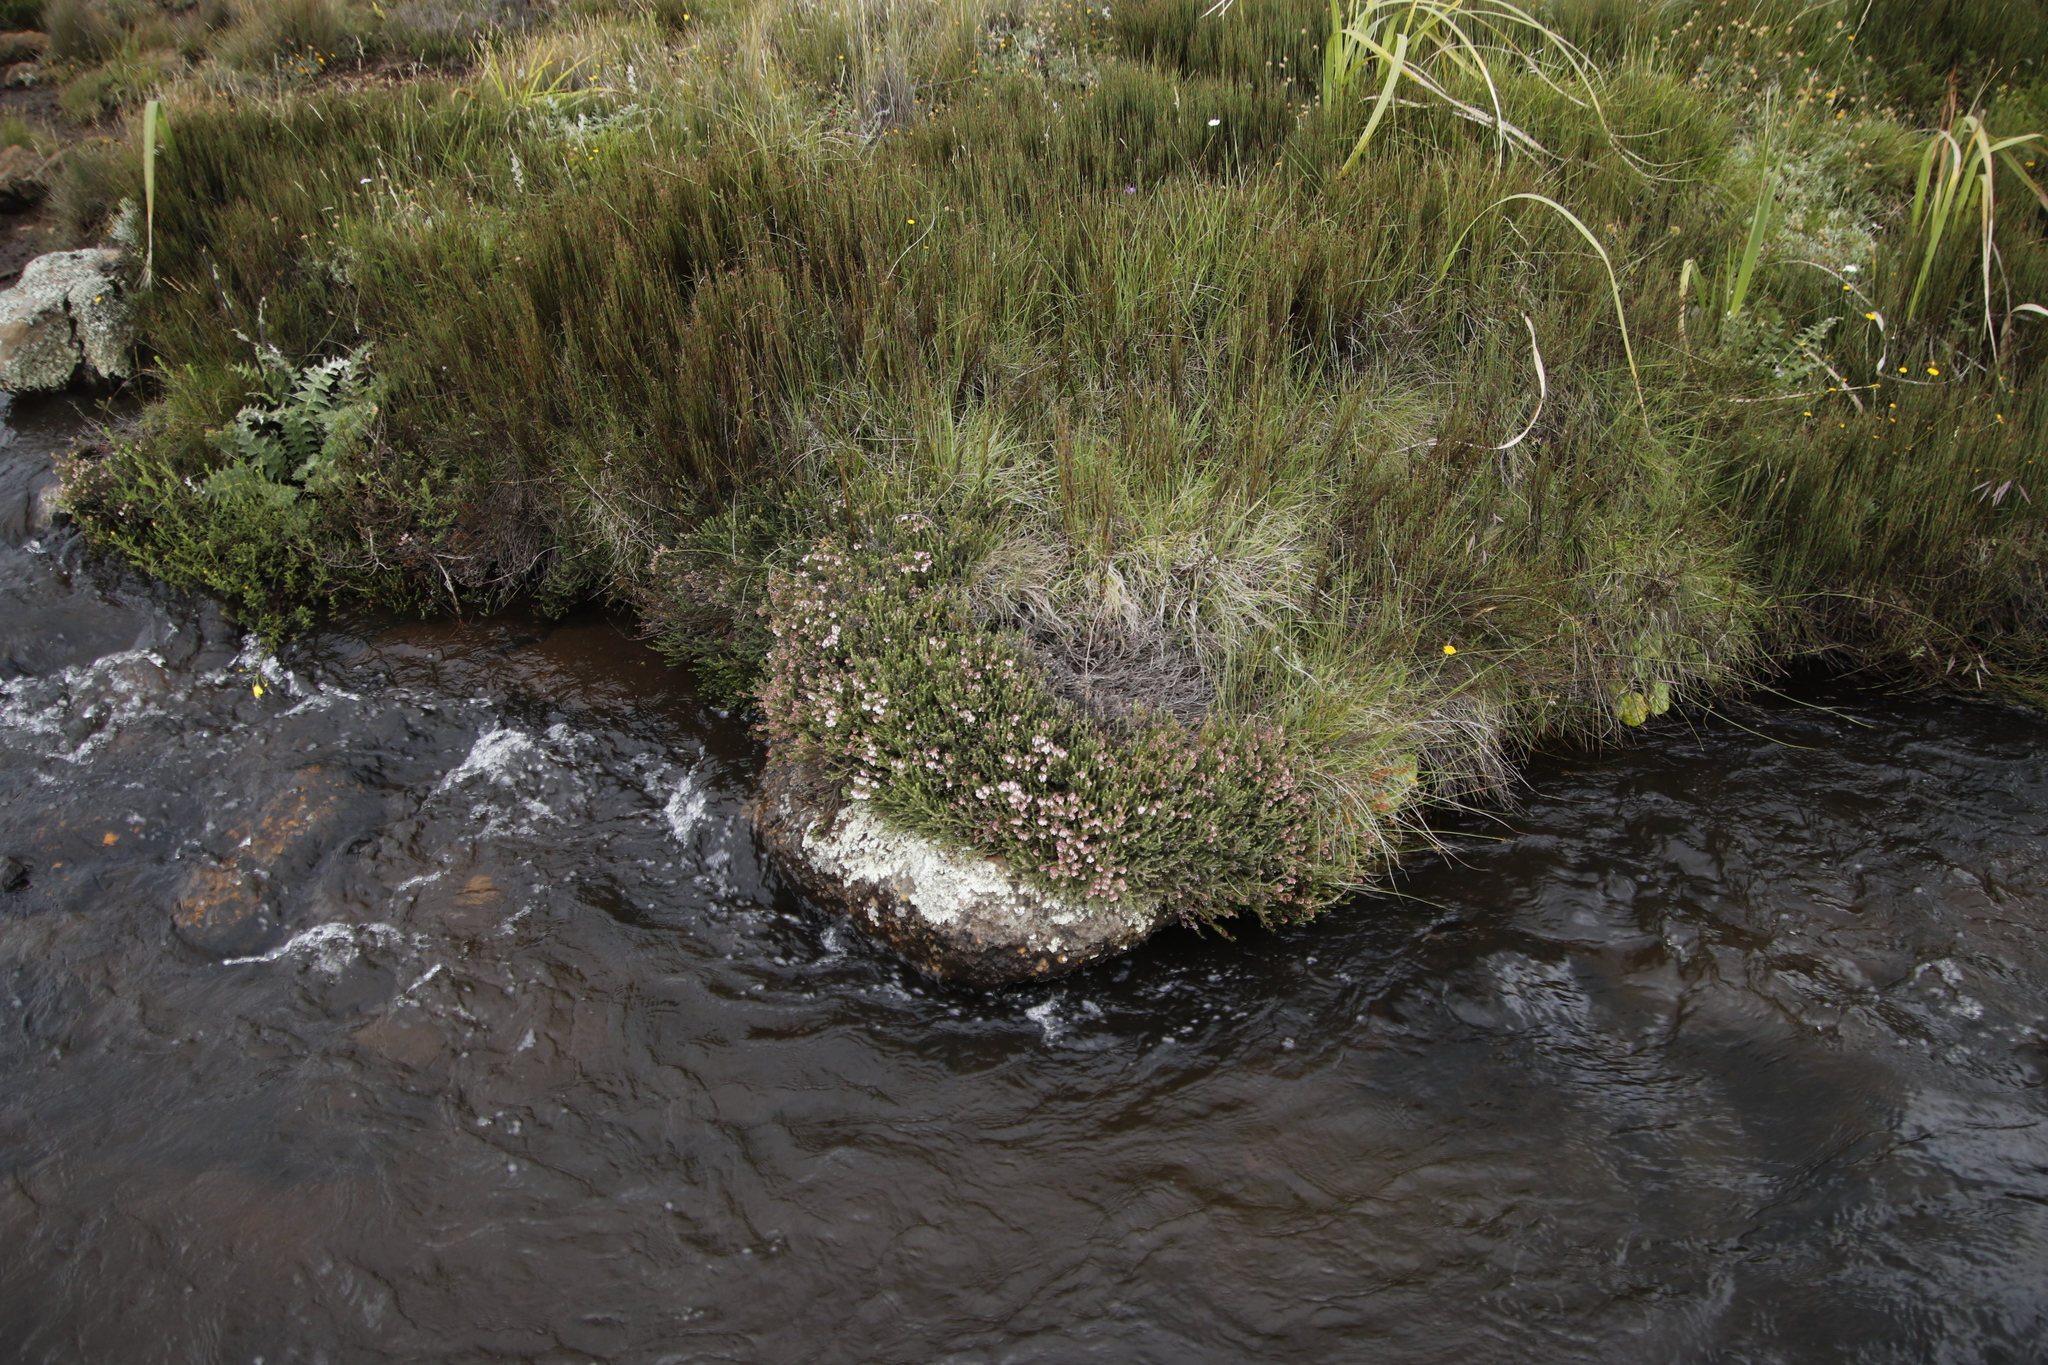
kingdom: Plantae
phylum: Tracheophyta
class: Magnoliopsida
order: Ericales
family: Ericaceae
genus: Erica
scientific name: Erica thodei
